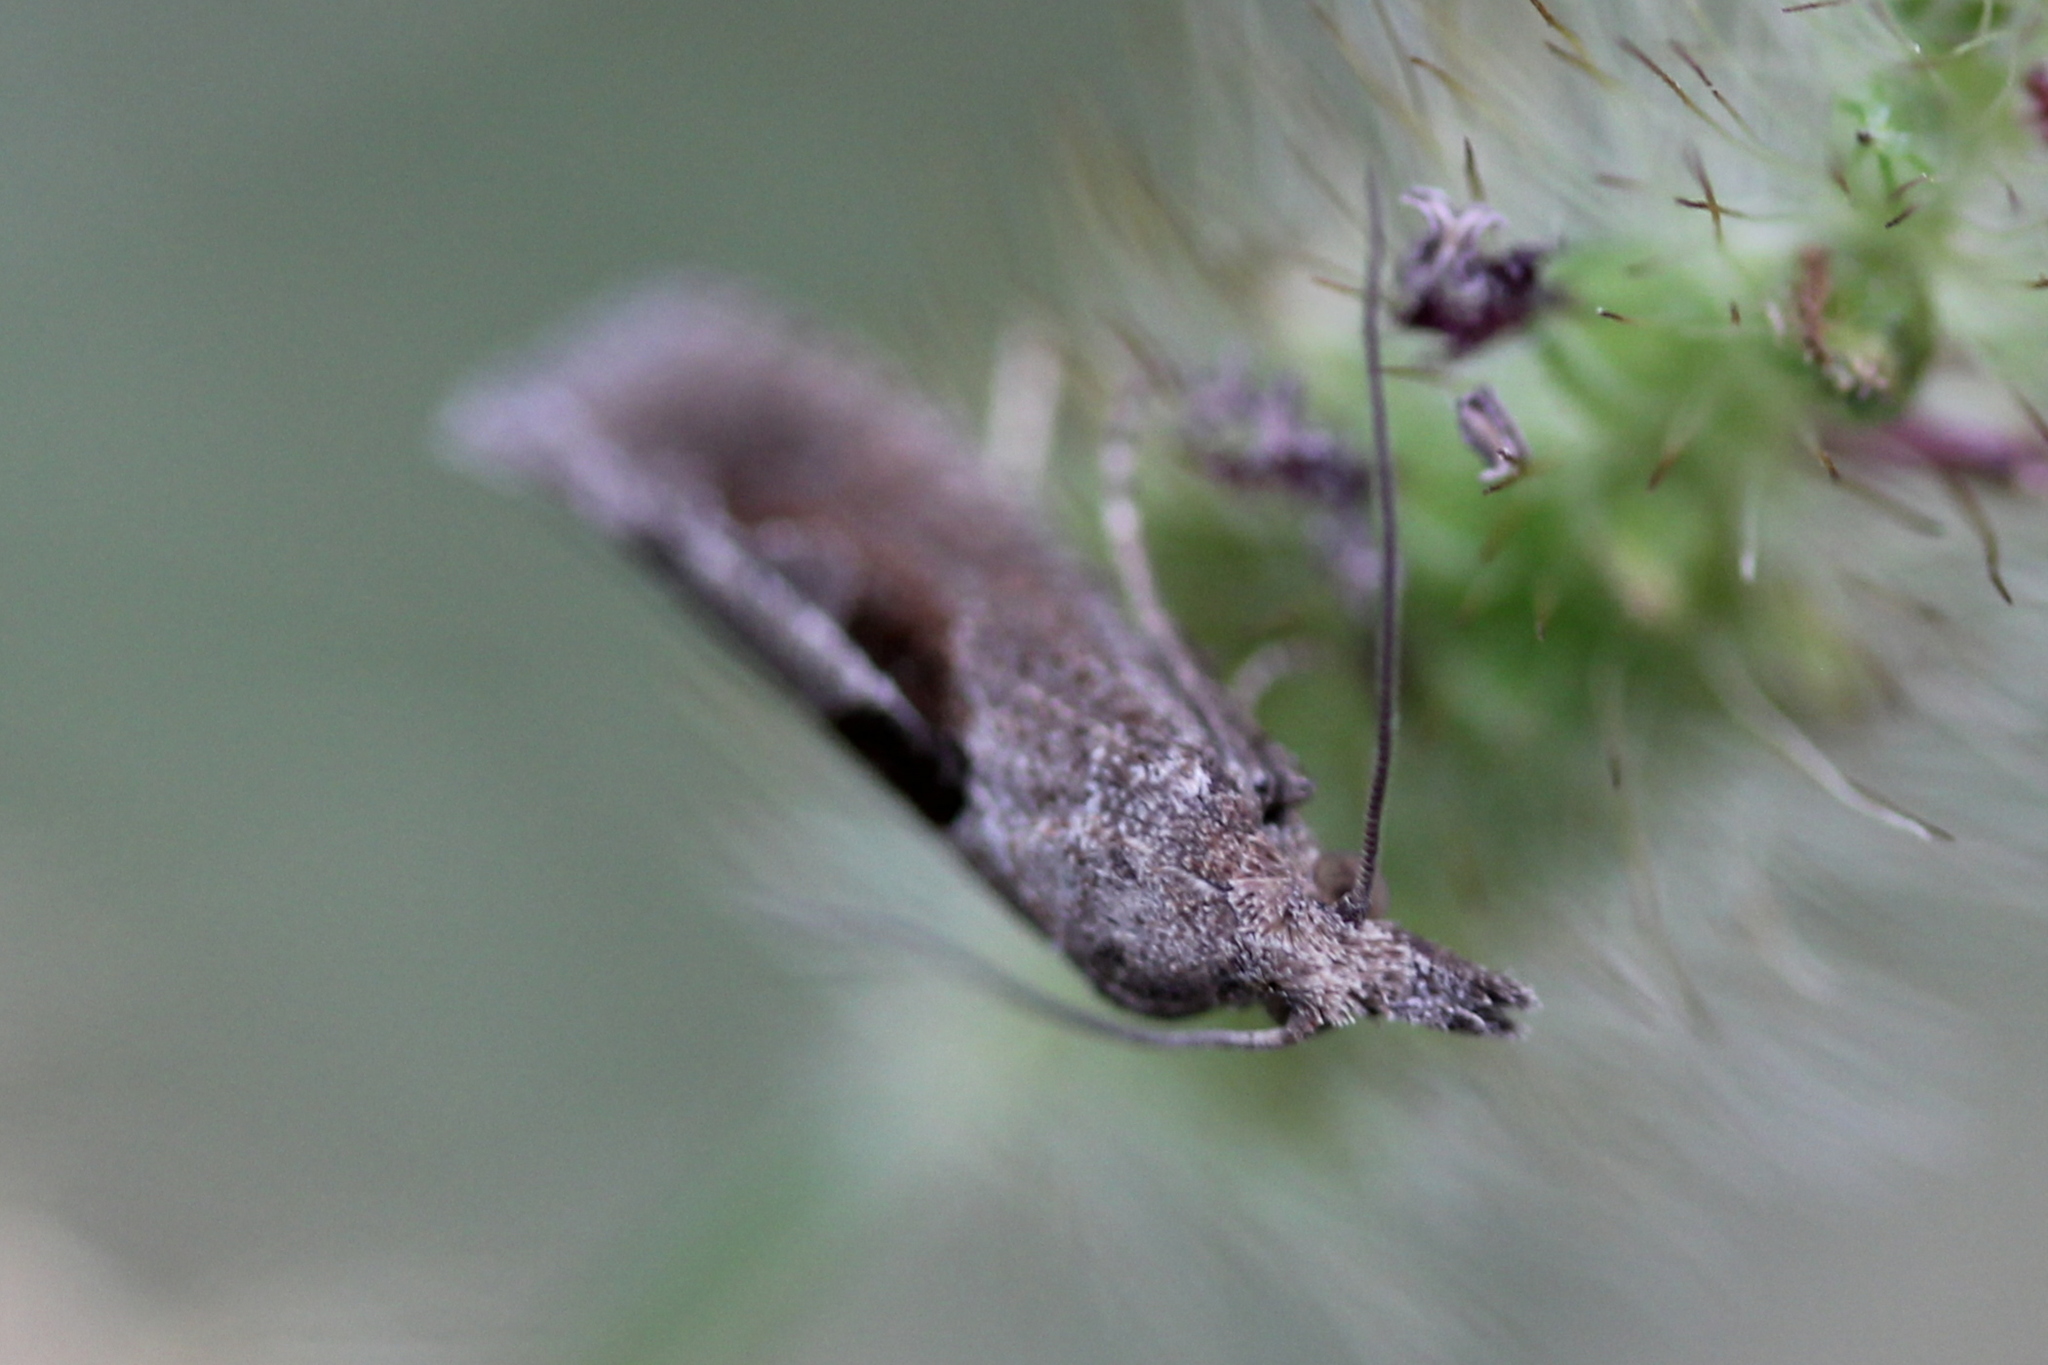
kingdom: Animalia
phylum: Arthropoda
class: Insecta
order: Lepidoptera
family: Tortricidae
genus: Pelochrista
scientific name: Pelochrista similiana
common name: Similar eucosma
